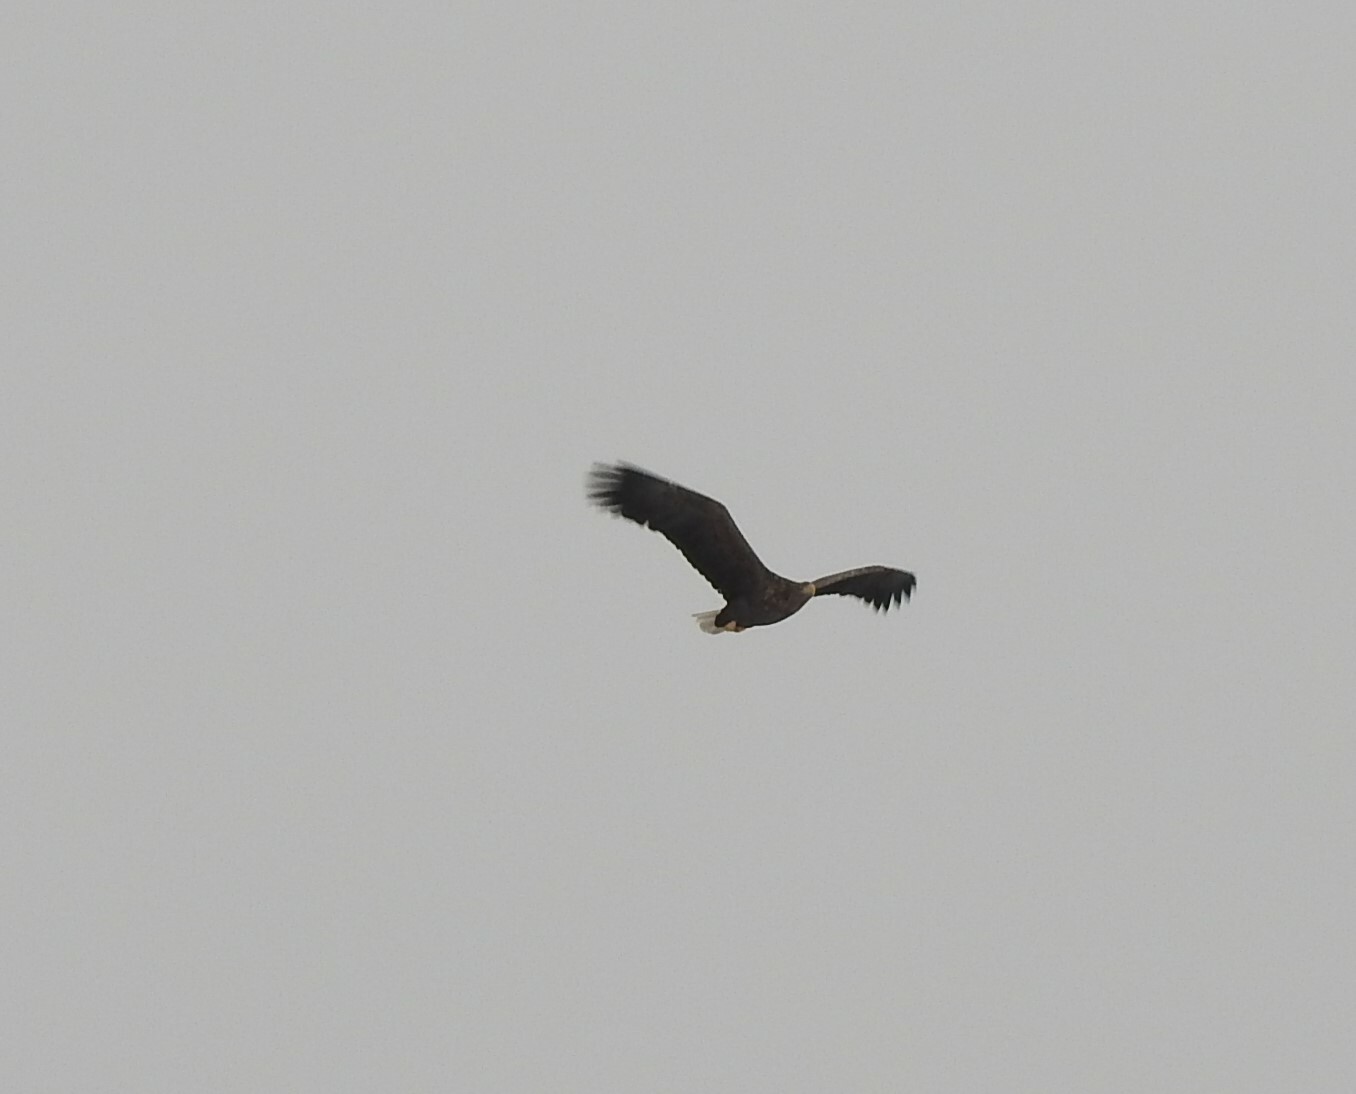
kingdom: Animalia
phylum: Chordata
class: Aves
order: Accipitriformes
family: Accipitridae
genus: Haliaeetus
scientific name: Haliaeetus albicilla
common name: White-tailed eagle
